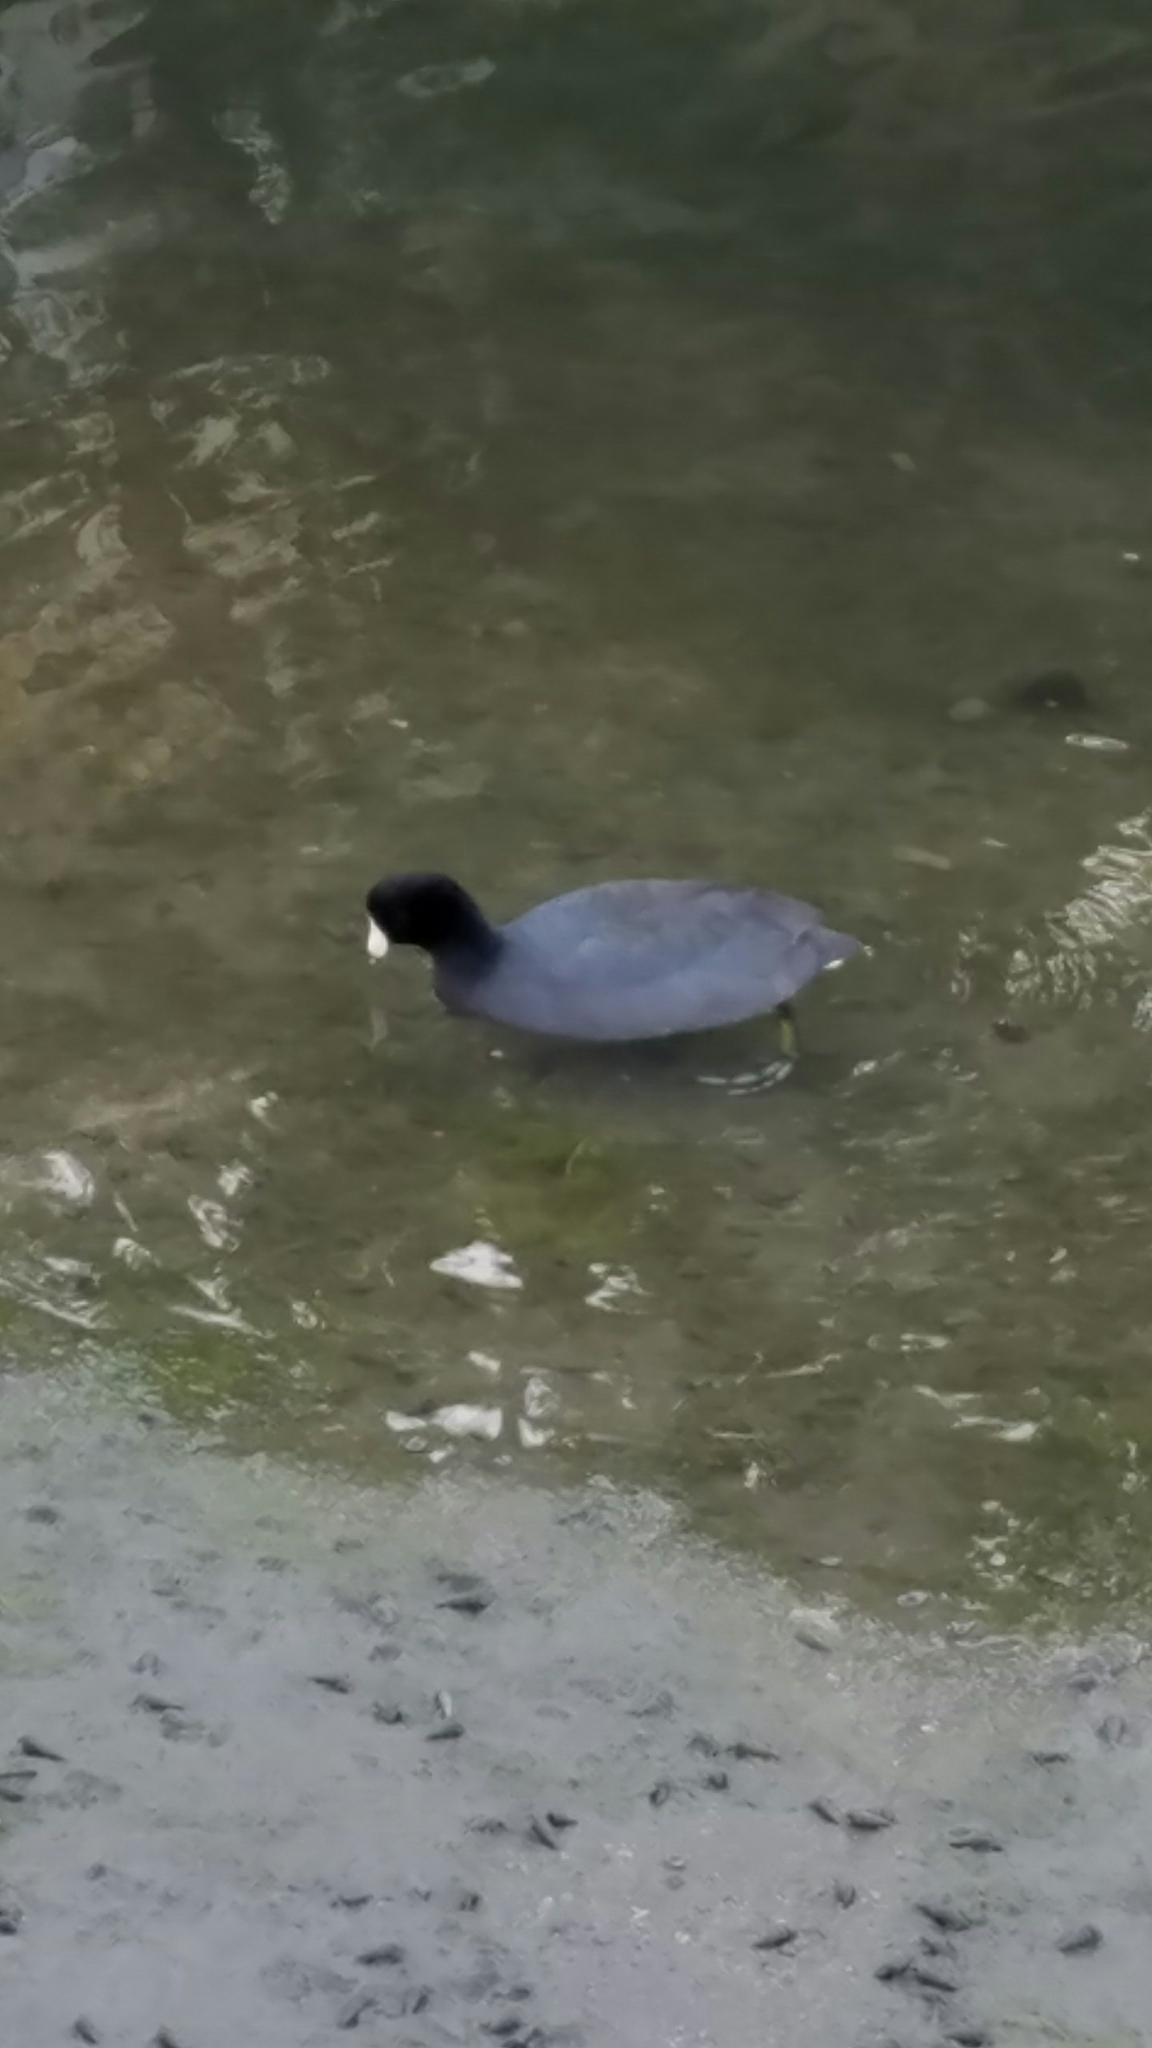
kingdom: Animalia
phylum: Chordata
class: Aves
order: Gruiformes
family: Rallidae
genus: Fulica
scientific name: Fulica americana
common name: American coot
